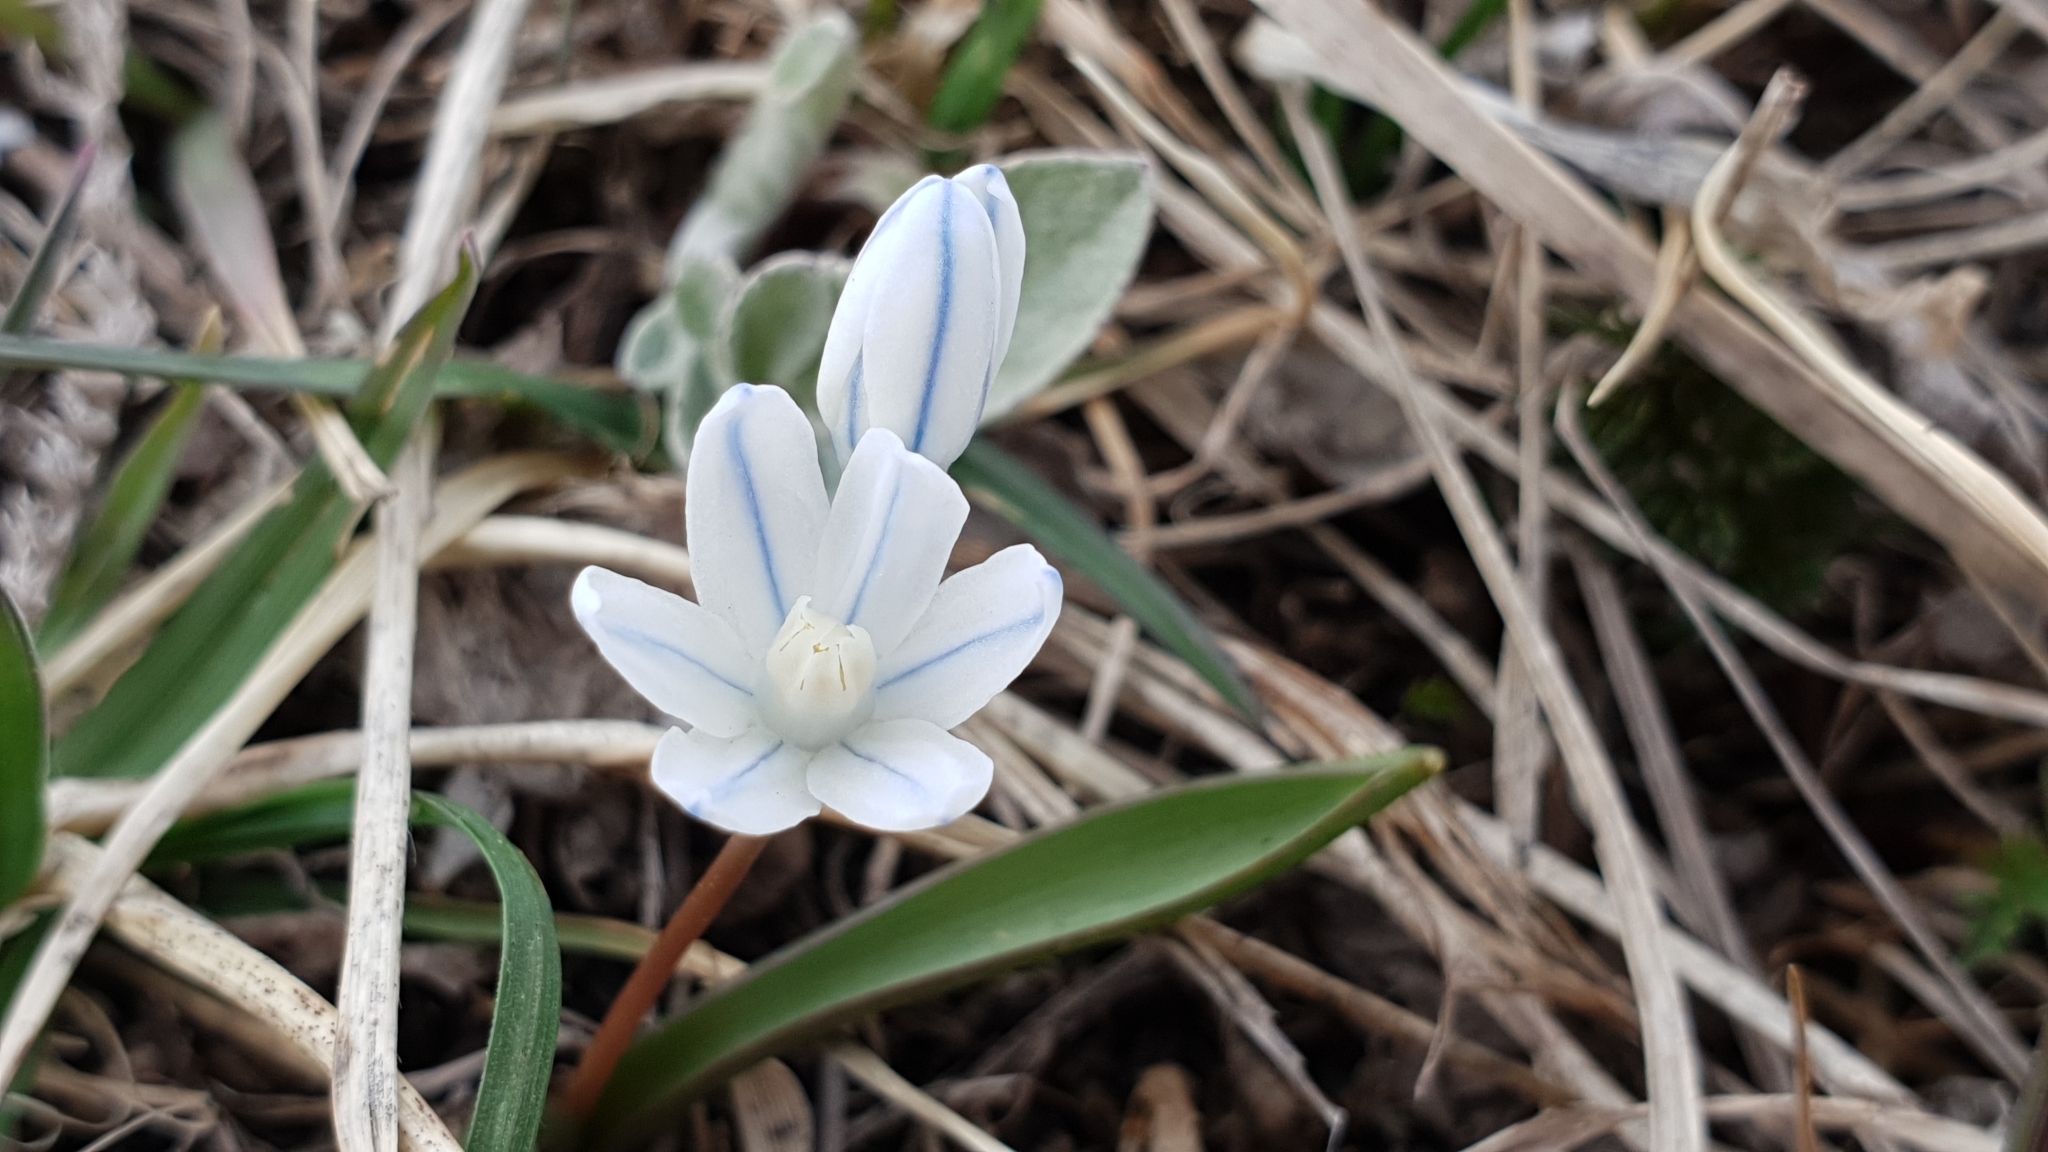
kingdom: Plantae
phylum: Tracheophyta
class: Liliopsida
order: Asparagales
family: Asparagaceae
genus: Puschkinia
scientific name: Puschkinia scilloides
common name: Striped squill
